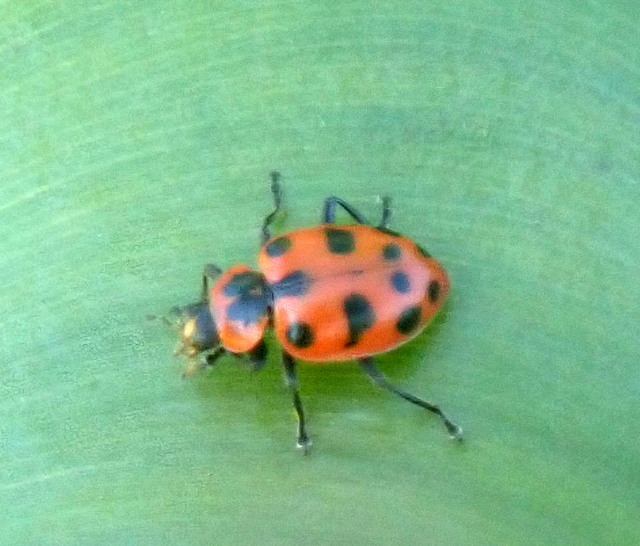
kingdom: Animalia
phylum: Arthropoda
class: Insecta
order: Coleoptera
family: Coccinellidae
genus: Coleomegilla
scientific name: Coleomegilla maculata
